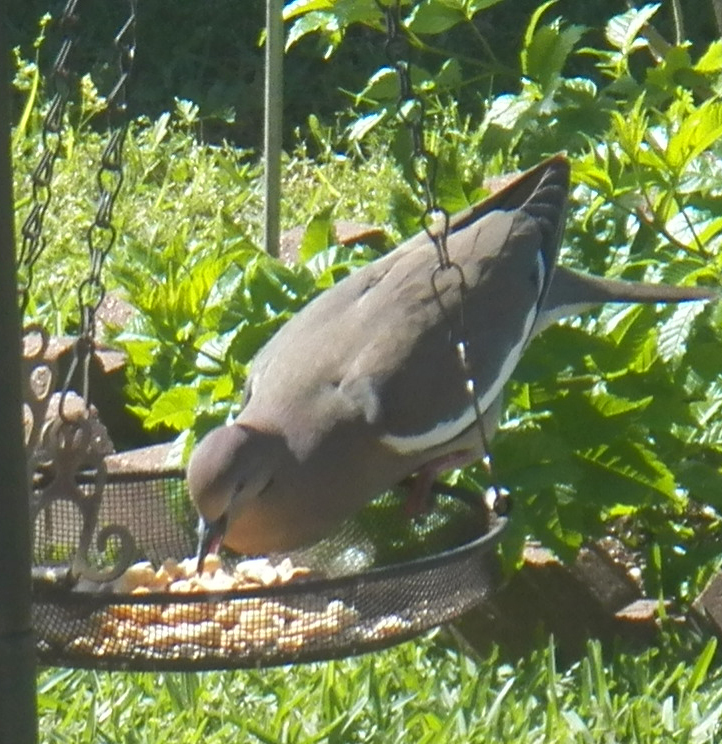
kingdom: Animalia
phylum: Chordata
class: Aves
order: Columbiformes
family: Columbidae
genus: Zenaida
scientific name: Zenaida asiatica
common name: White-winged dove
